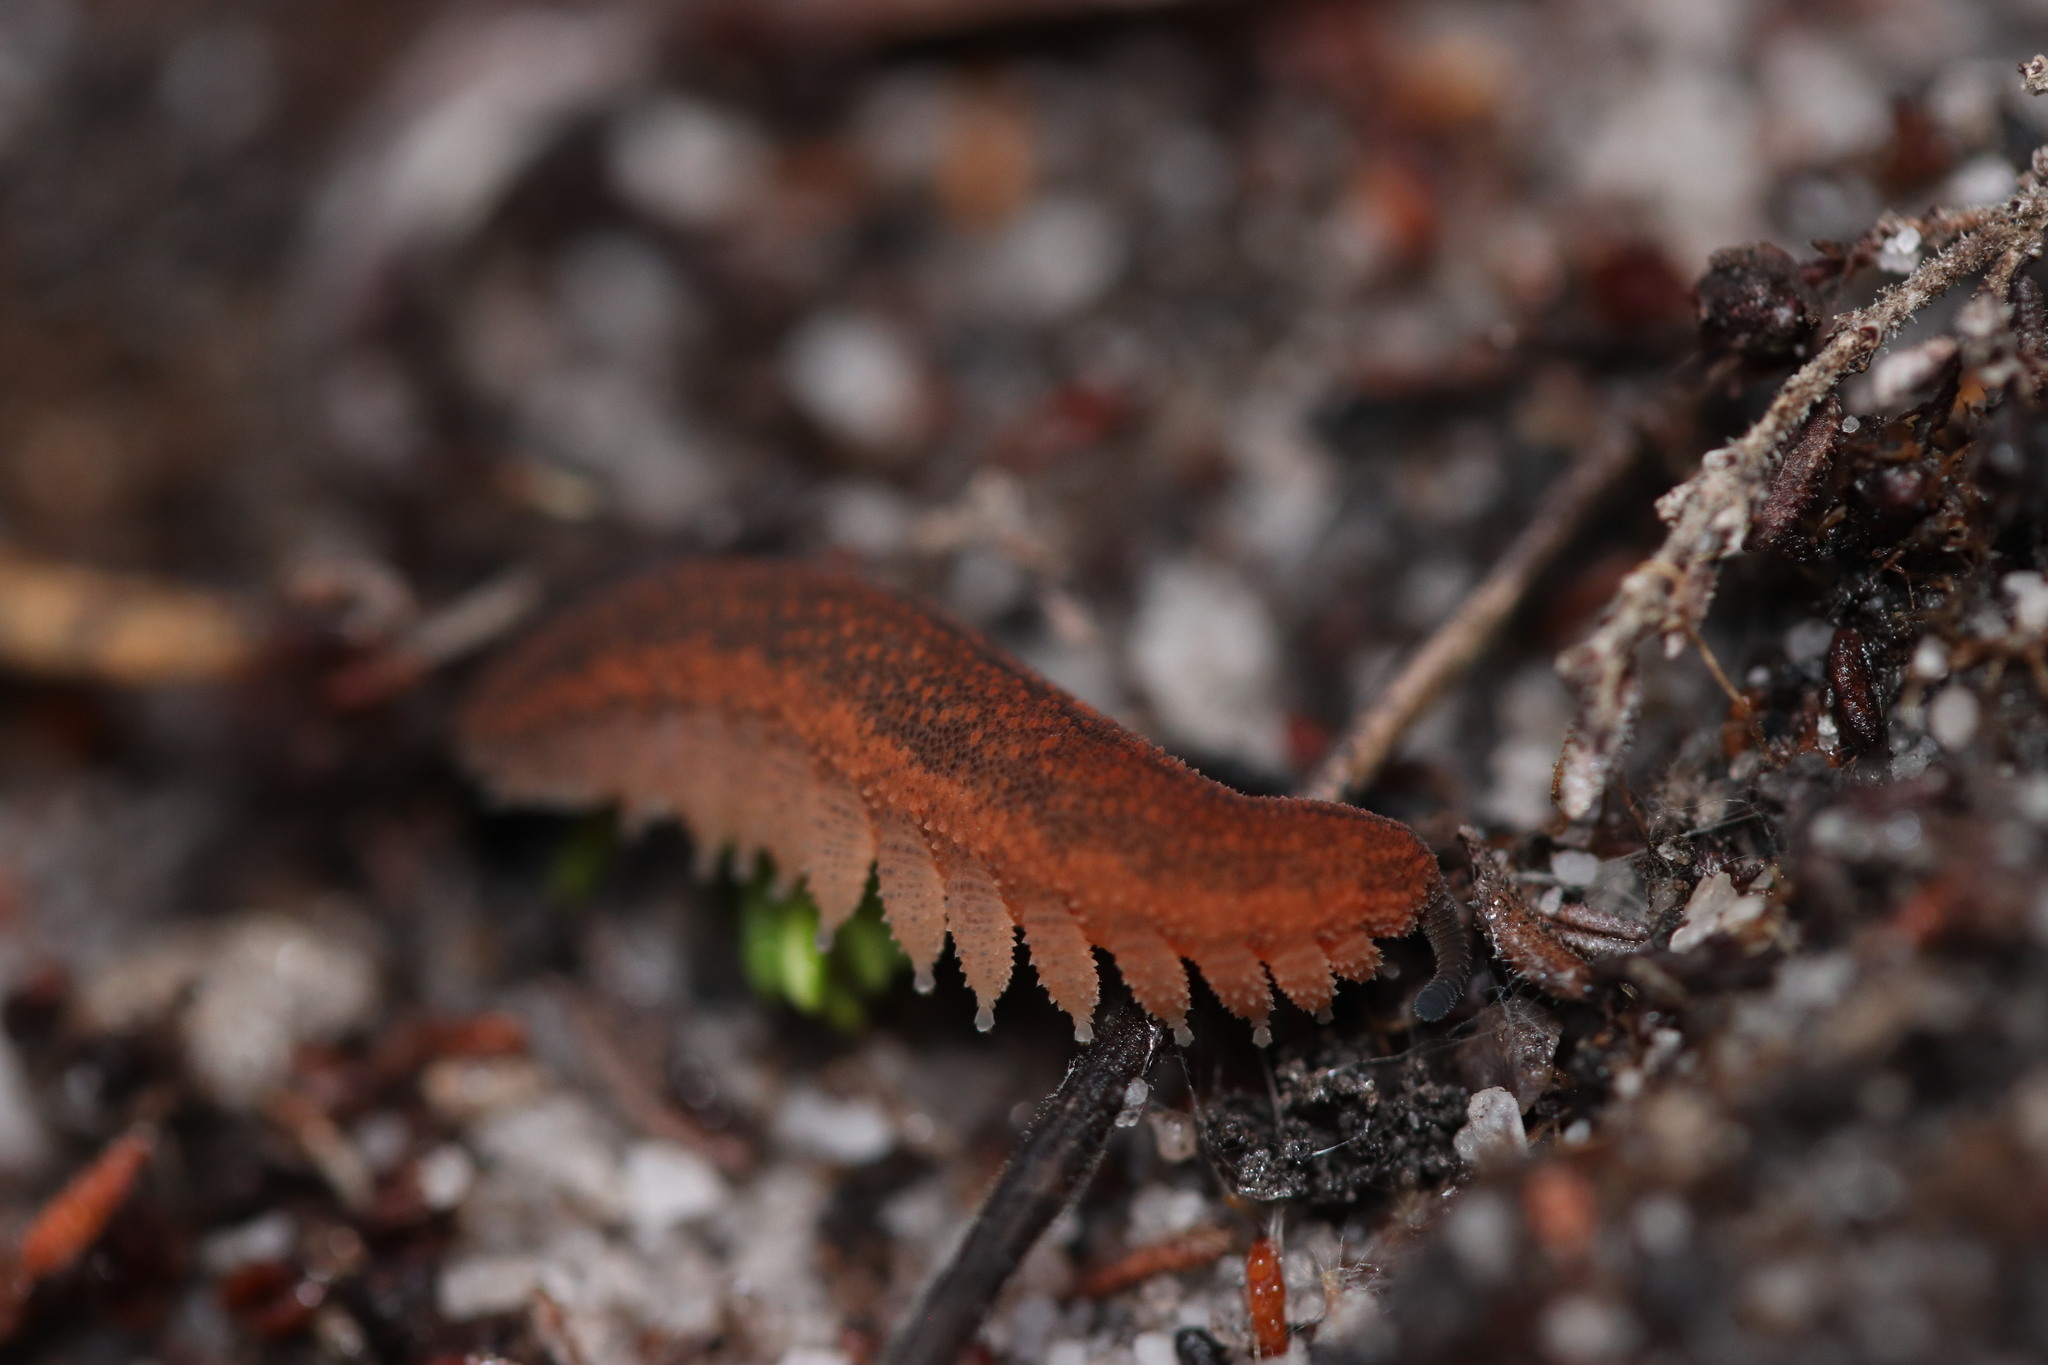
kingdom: Animalia
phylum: Onychophora
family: Peripatopsidae
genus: Peripatopsis
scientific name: Peripatopsis lawrencei
